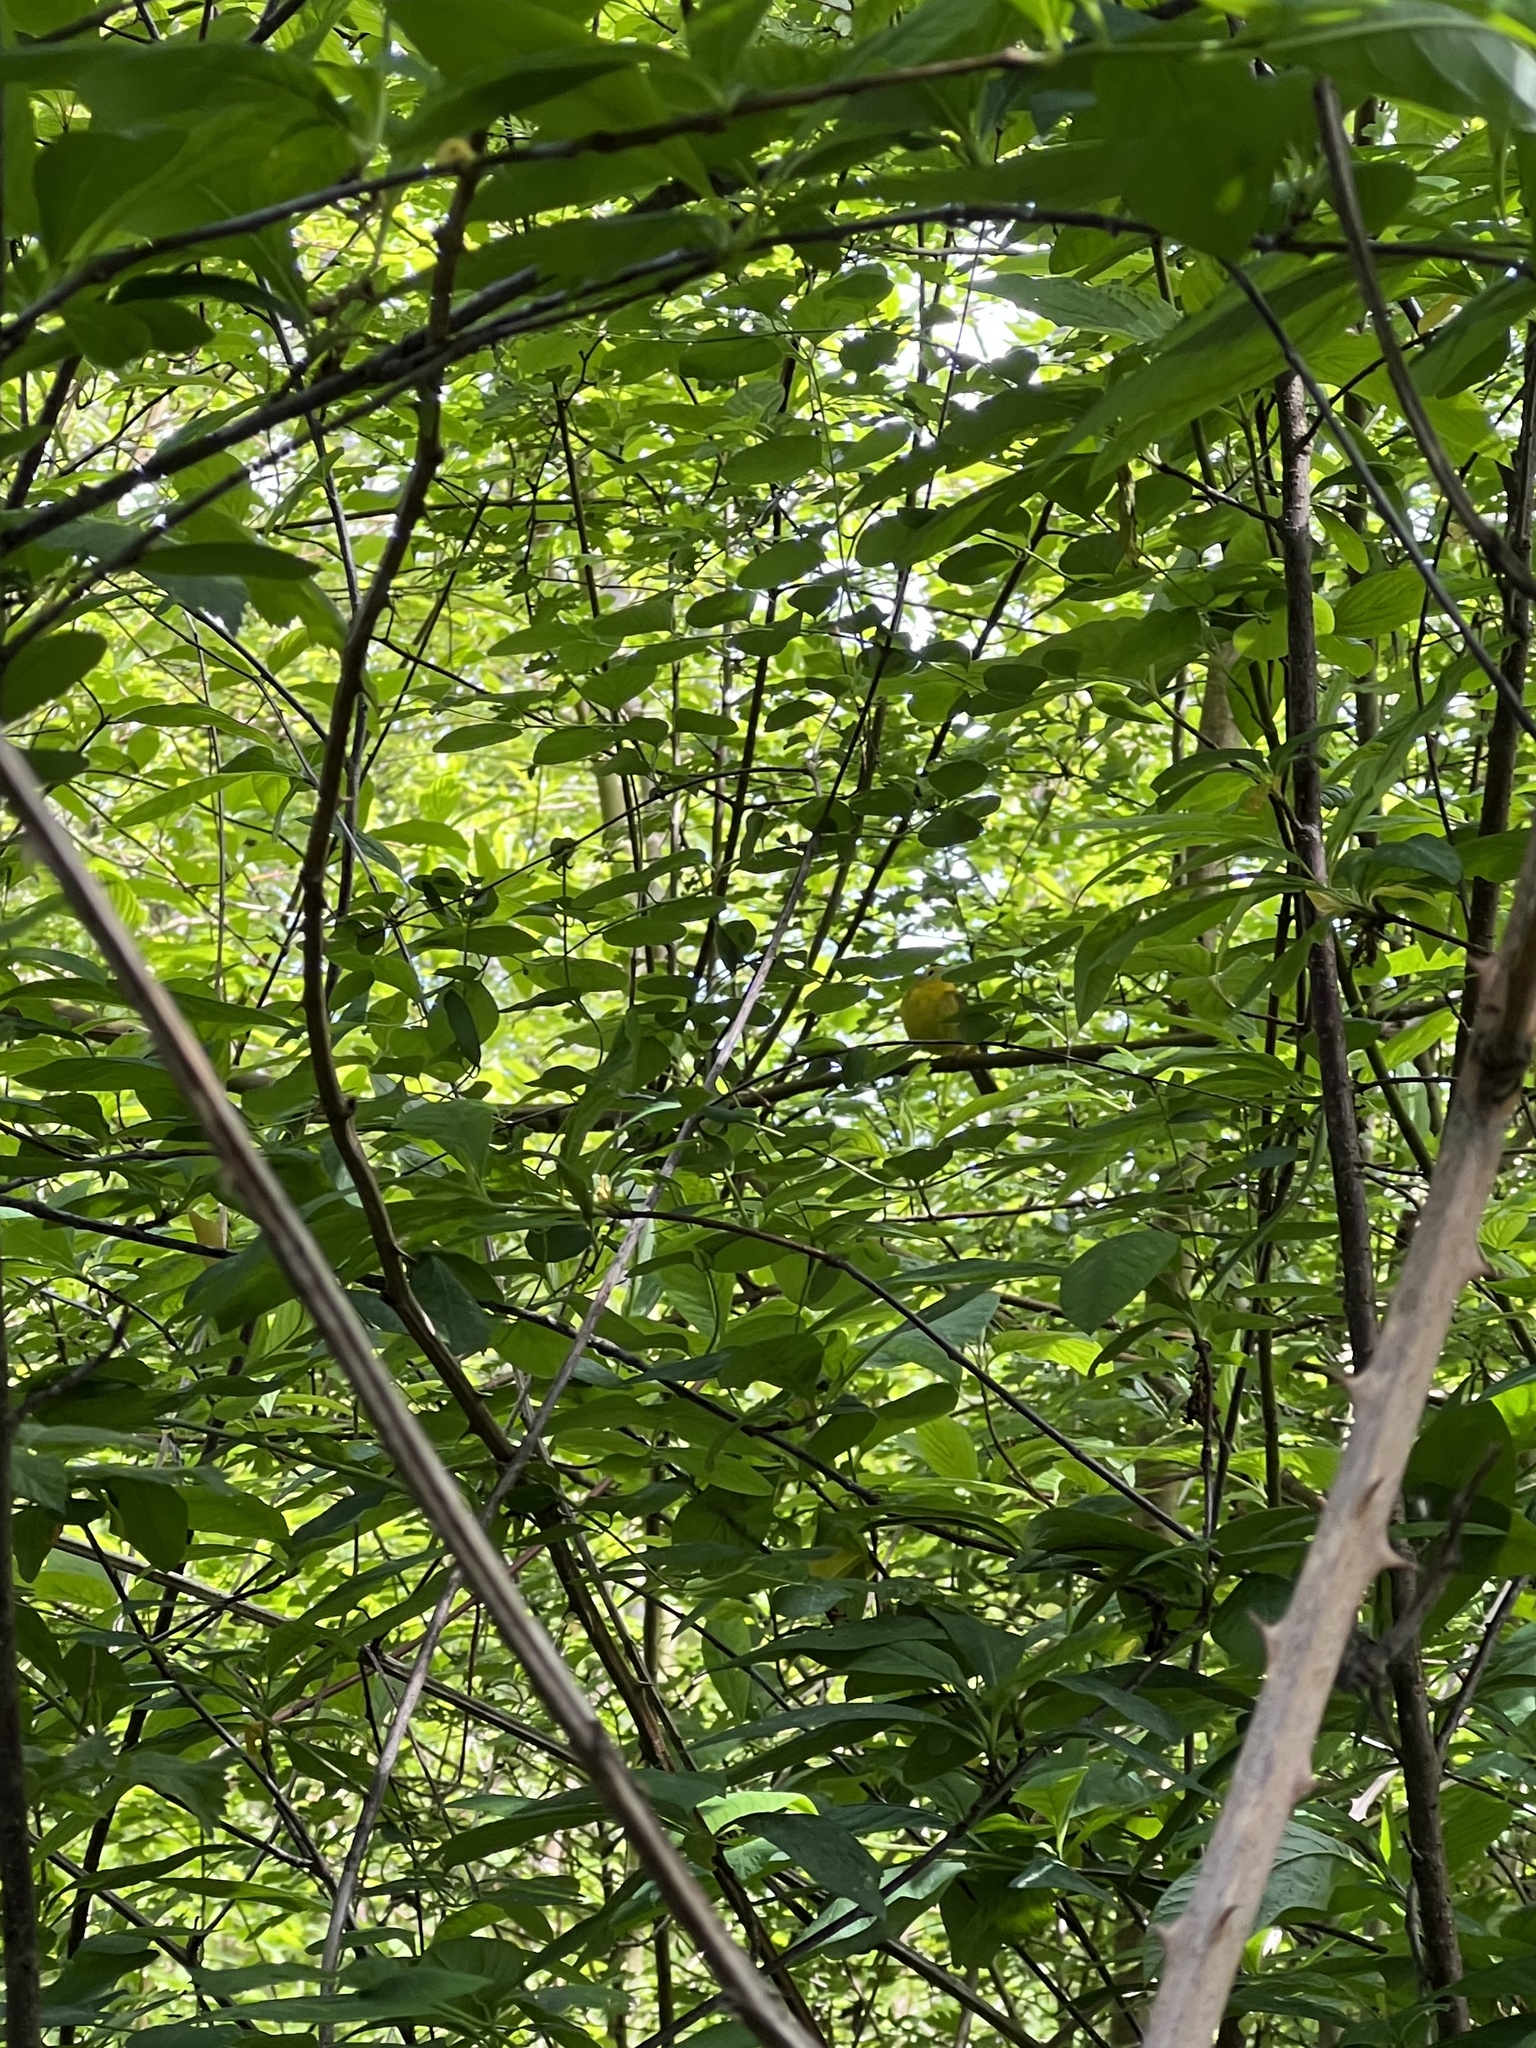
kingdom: Animalia
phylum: Chordata
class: Aves
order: Passeriformes
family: Parulidae
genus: Cardellina
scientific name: Cardellina pusilla
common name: Wilson's warbler
